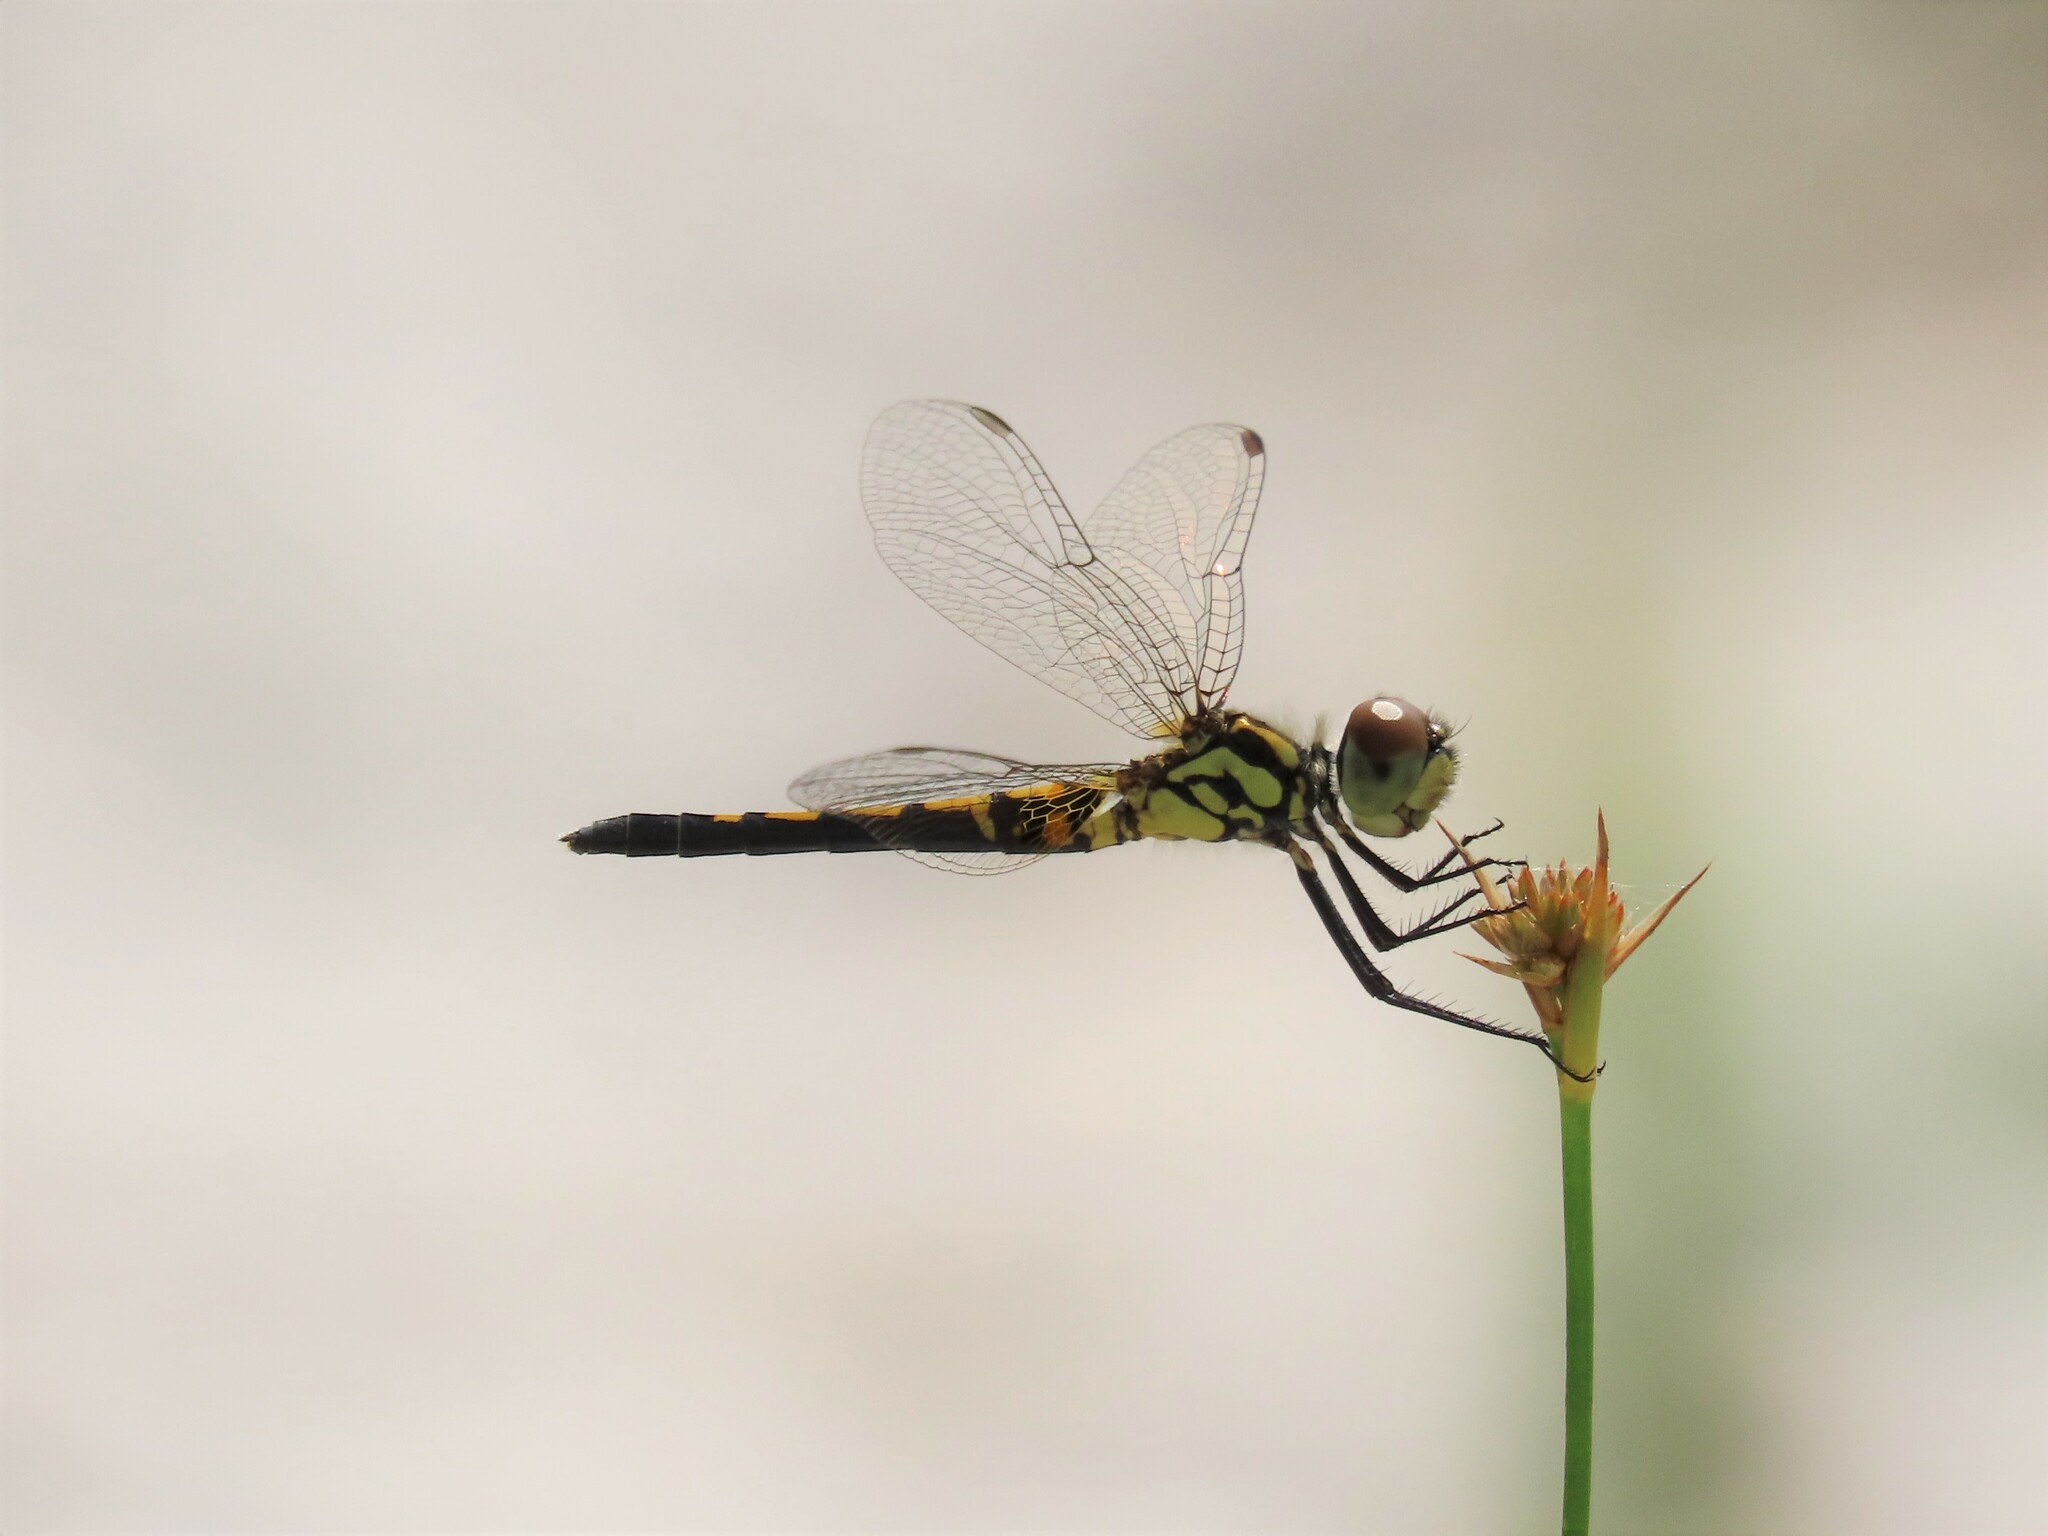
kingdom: Animalia
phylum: Arthropoda
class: Insecta
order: Odonata
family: Libellulidae
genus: Celithemis
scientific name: Celithemis ornata
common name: Ornate pennant
